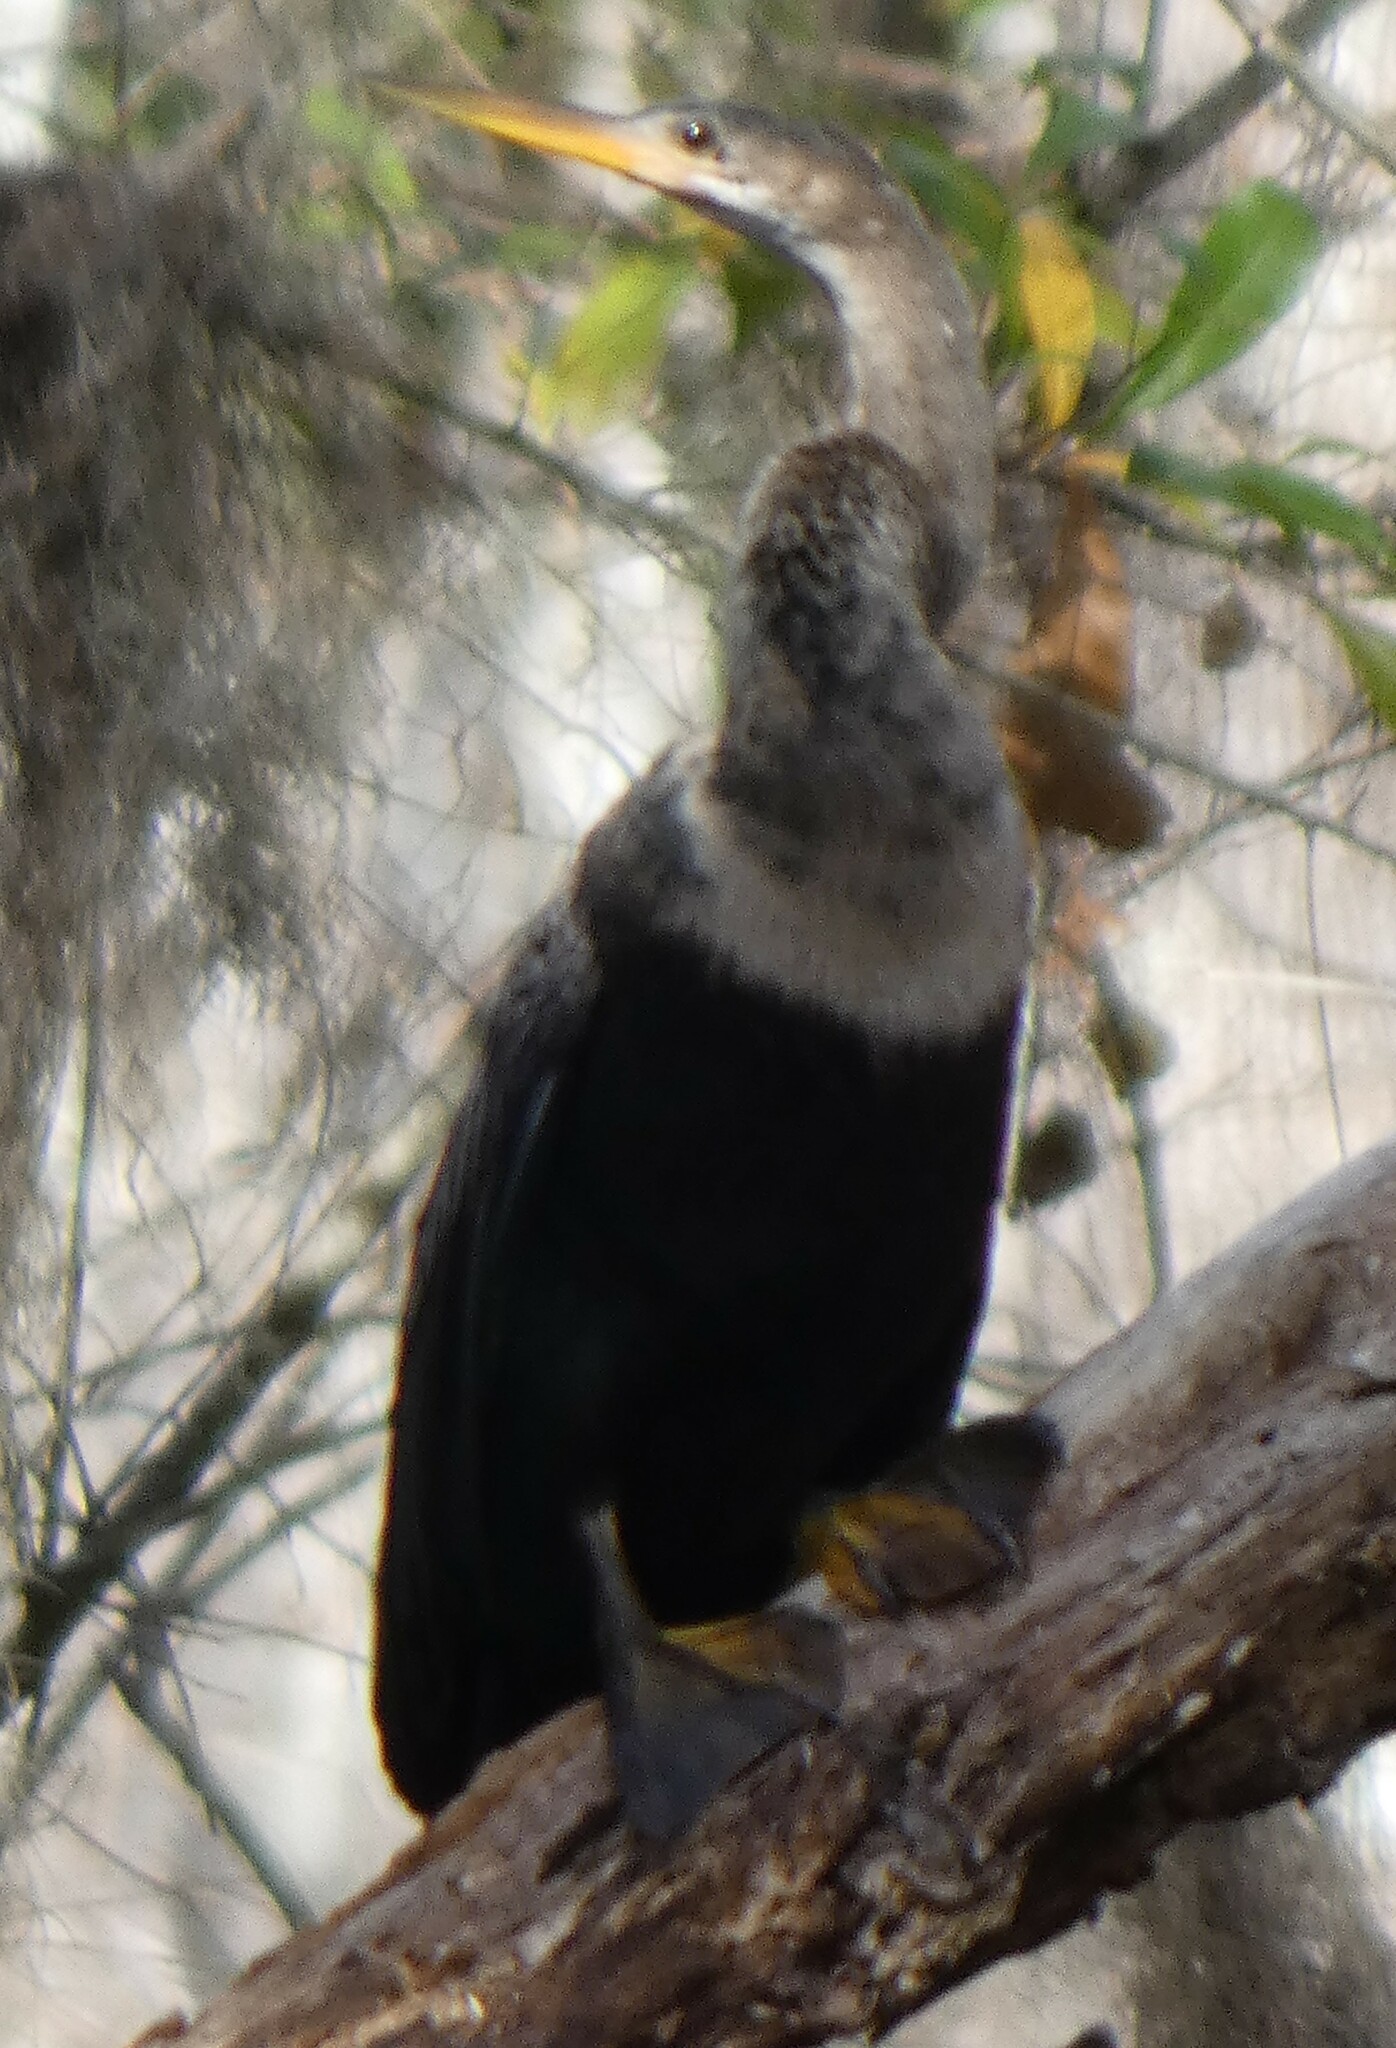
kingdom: Animalia
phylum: Chordata
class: Aves
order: Suliformes
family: Anhingidae
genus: Anhinga
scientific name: Anhinga anhinga
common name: Anhinga
